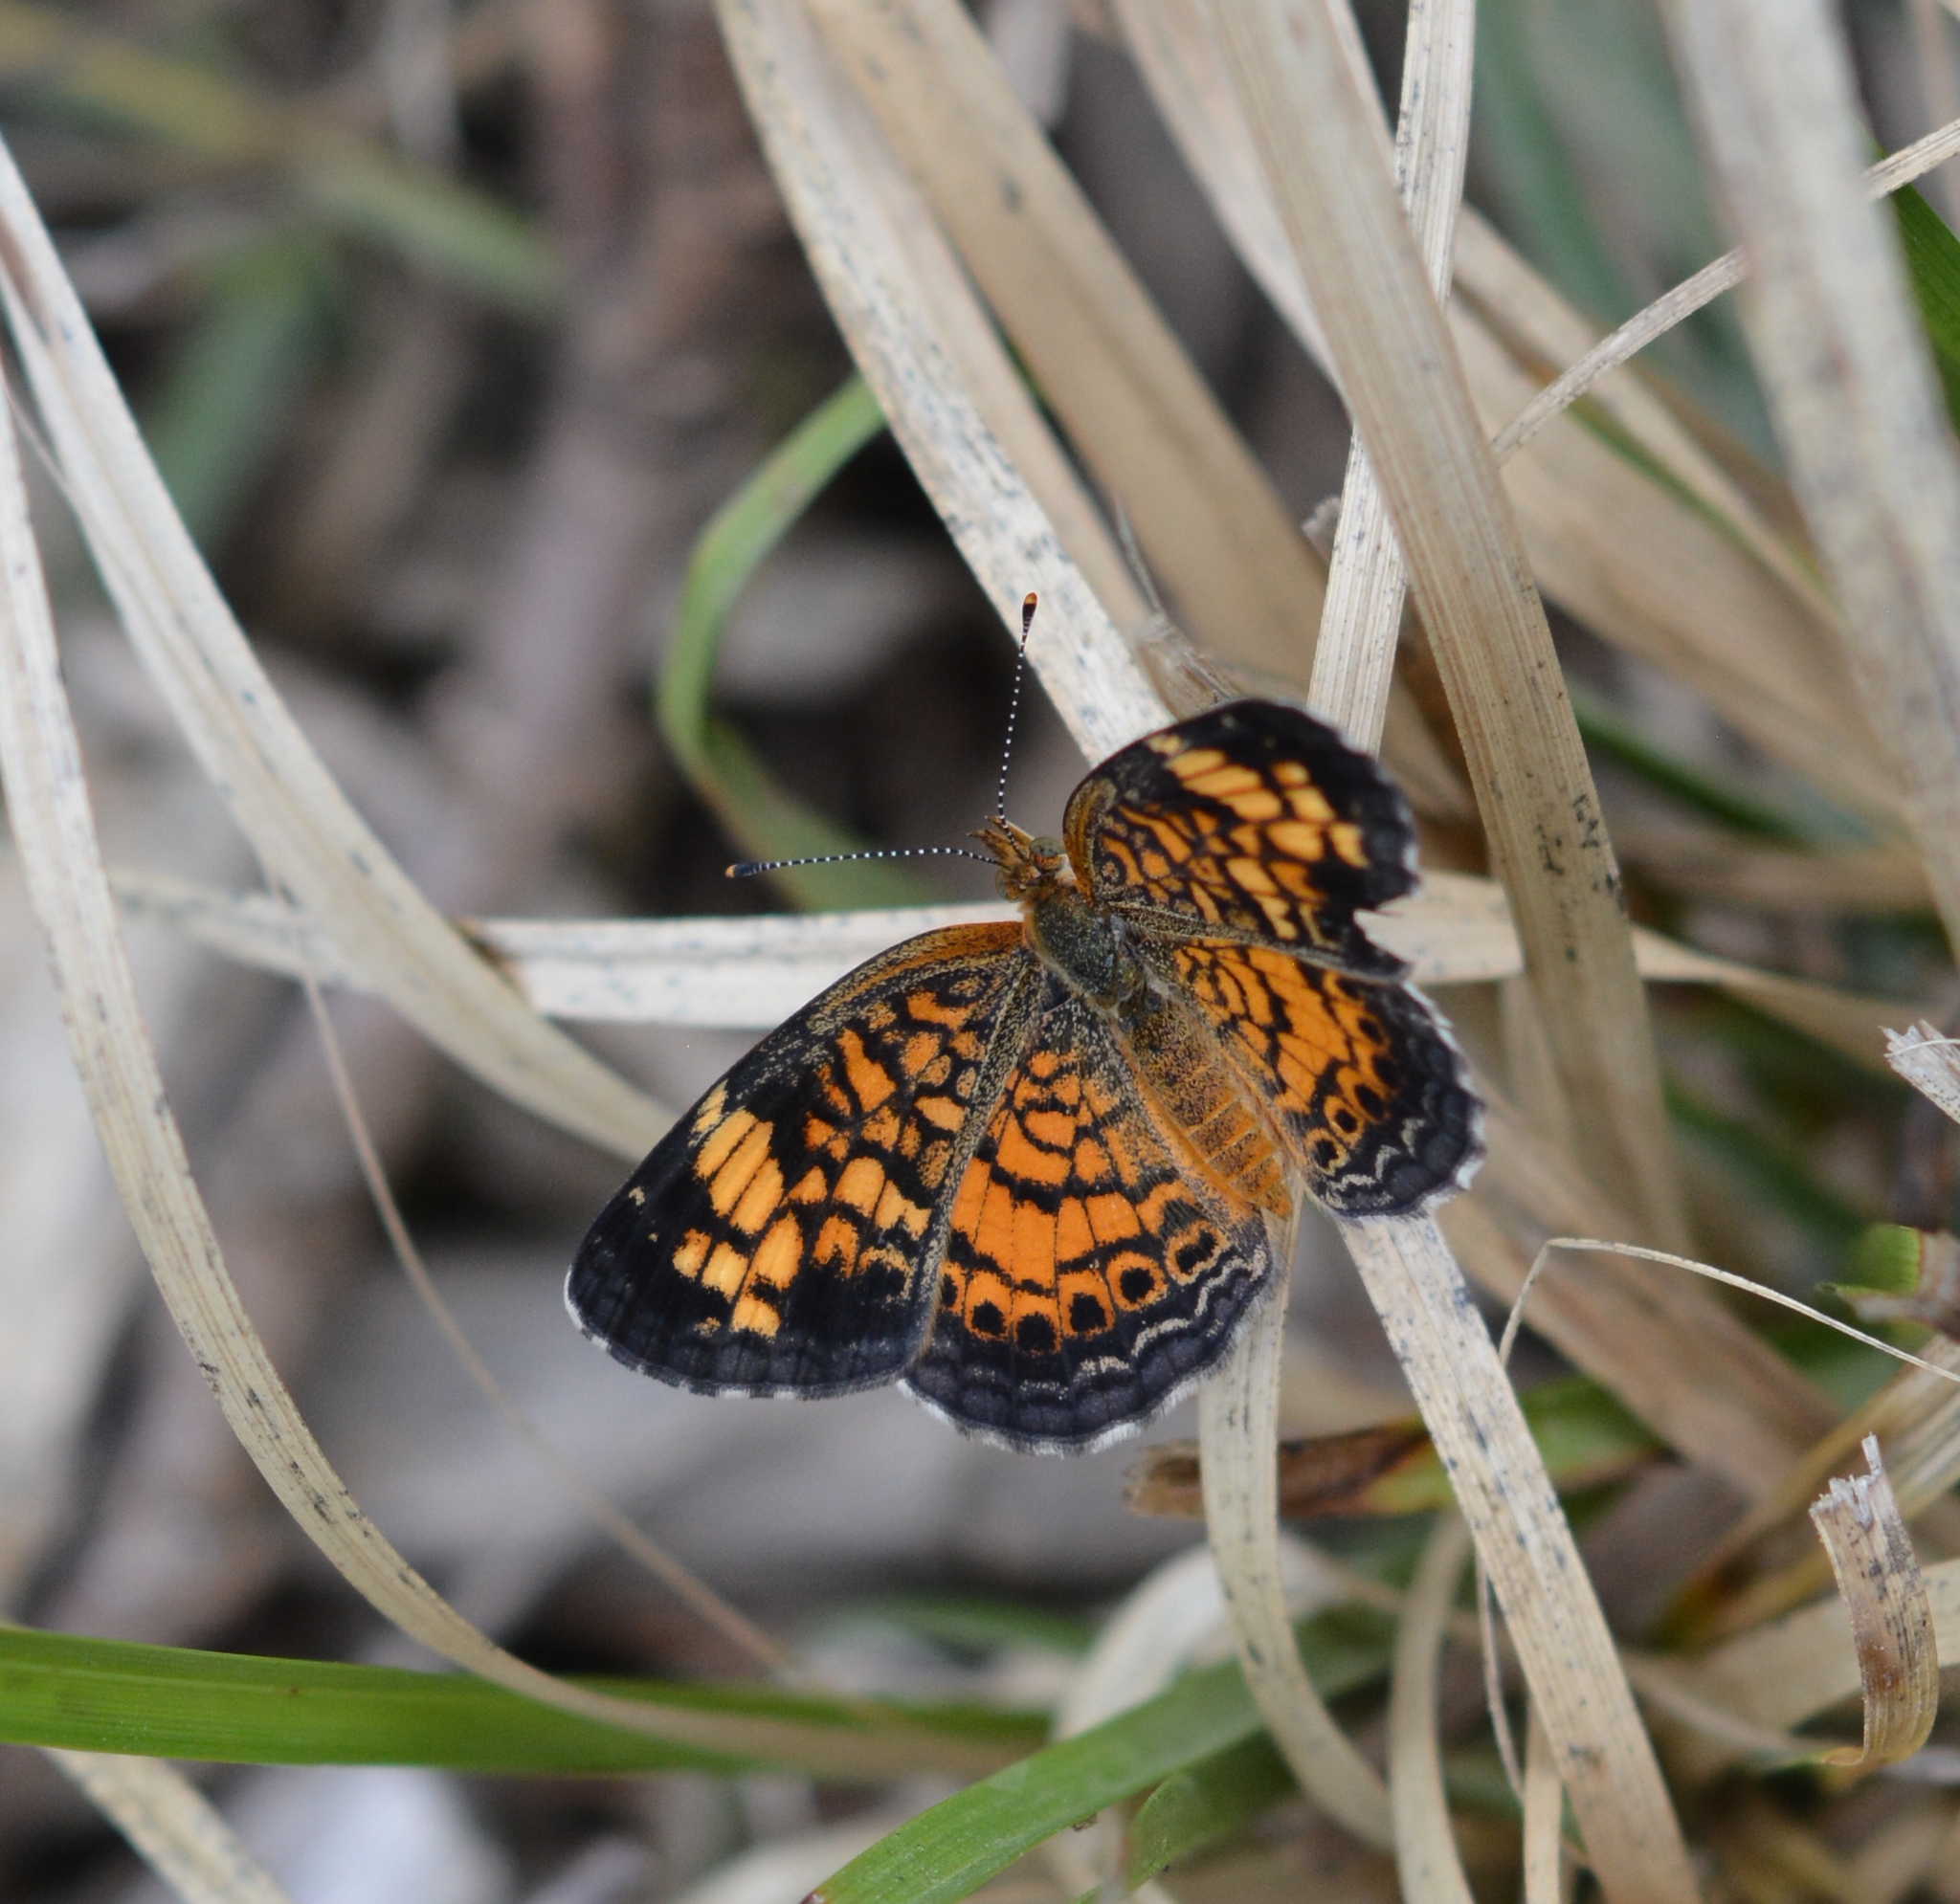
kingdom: Animalia
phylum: Arthropoda
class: Insecta
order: Lepidoptera
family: Nymphalidae
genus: Phyciodes
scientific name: Phyciodes tharos
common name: Pearl crescent
